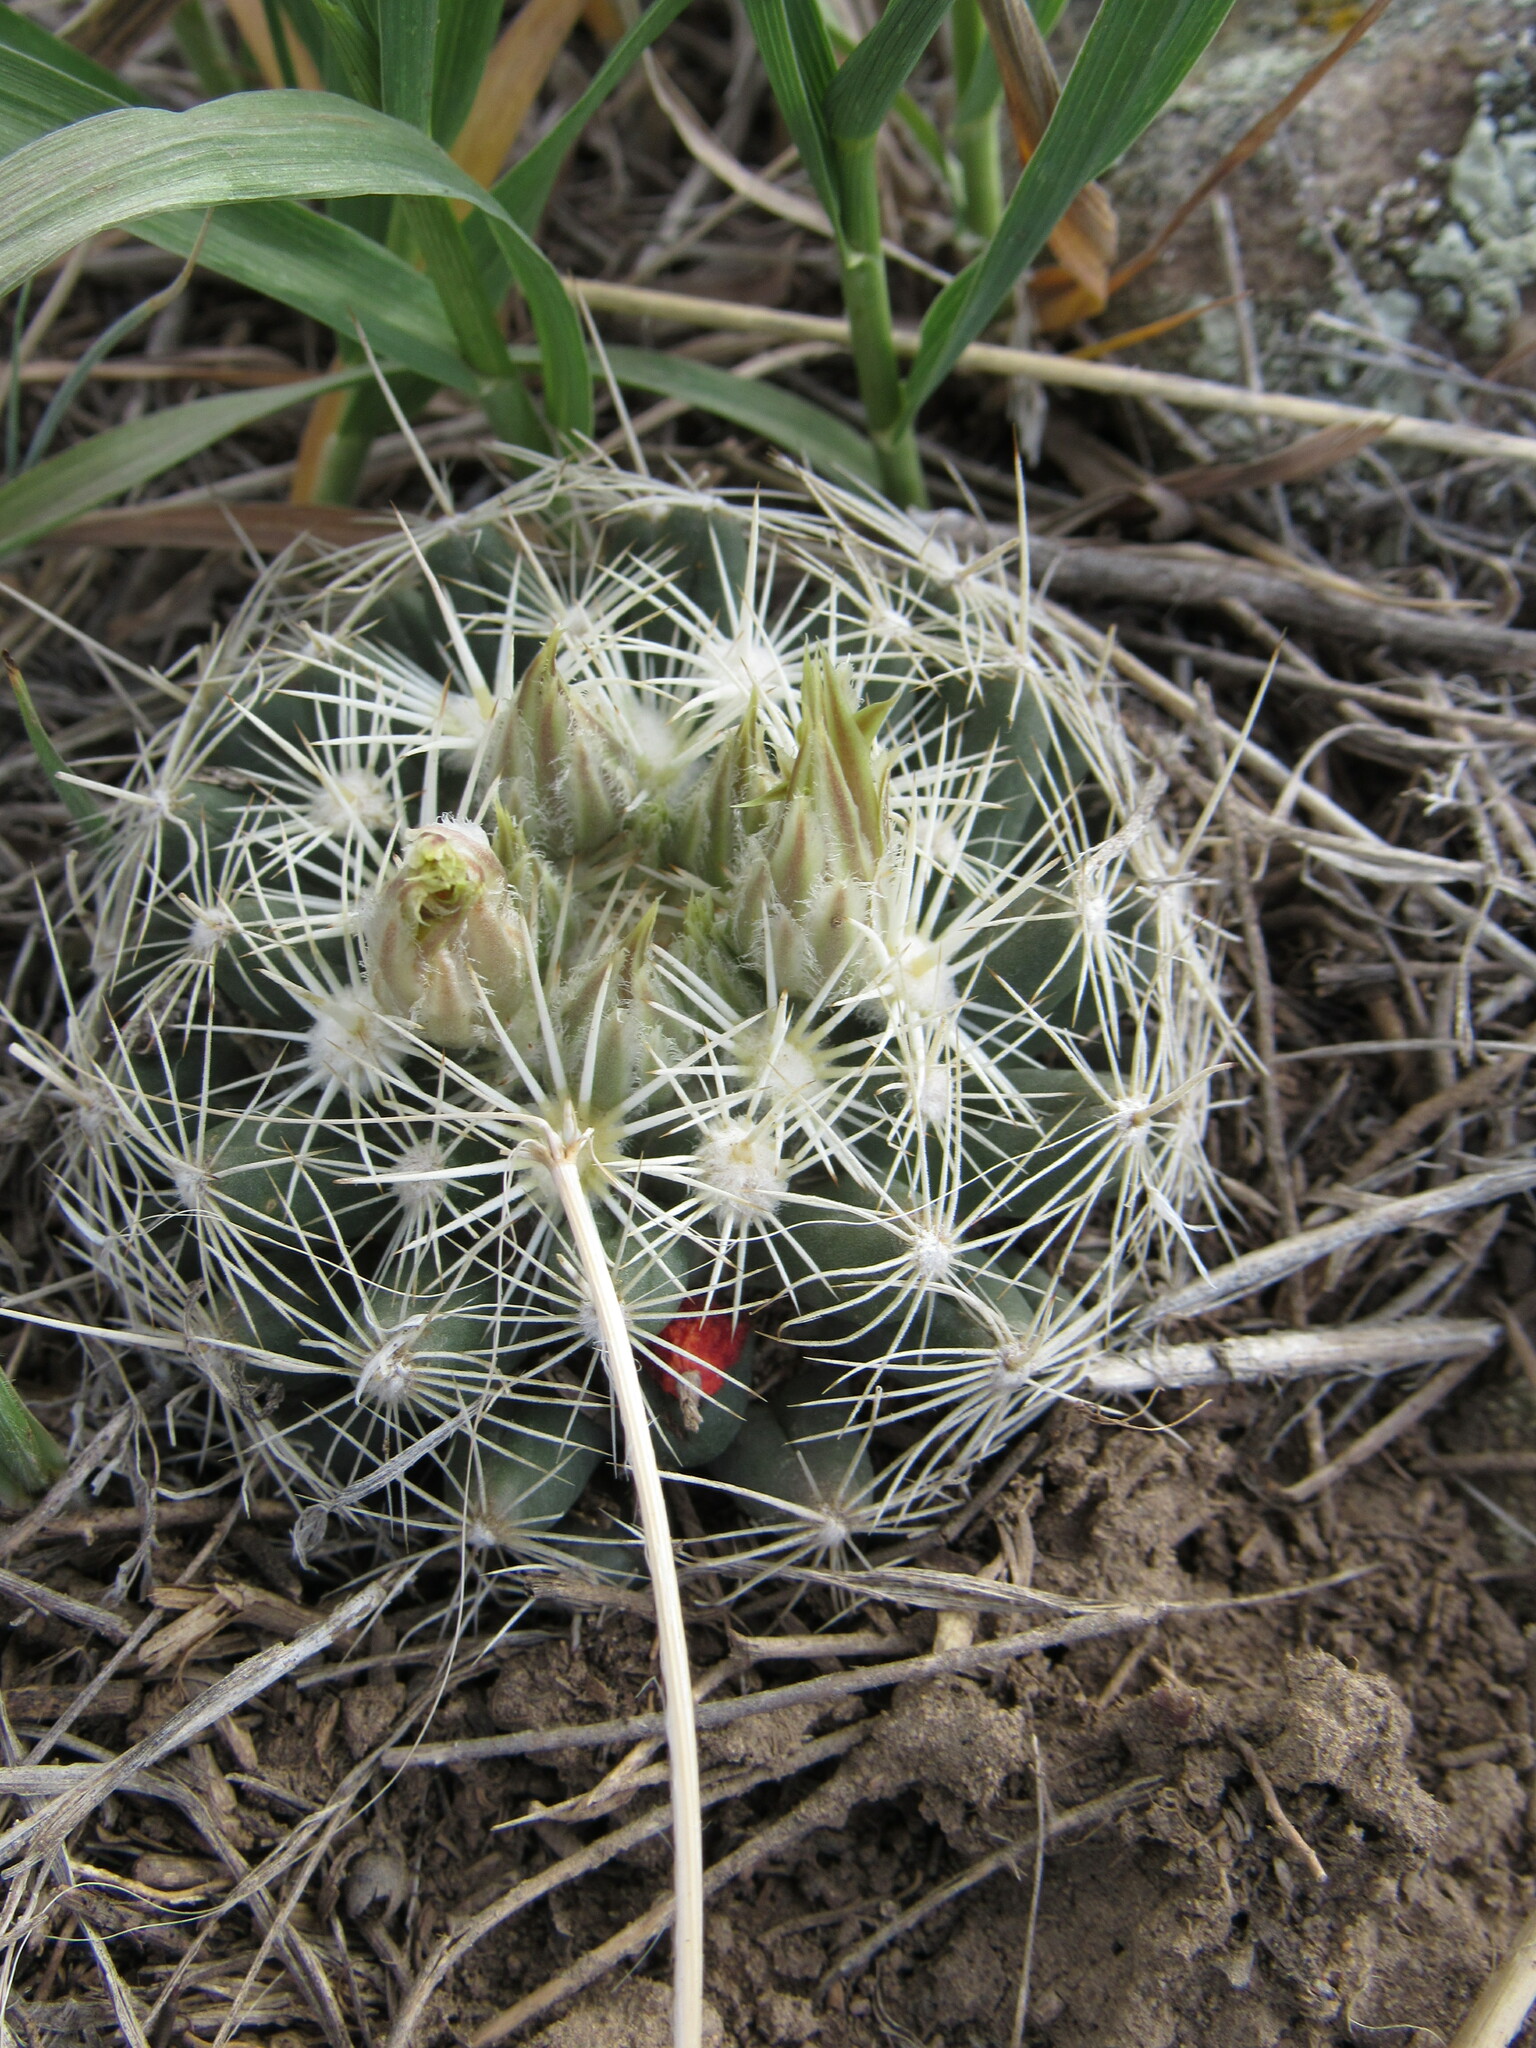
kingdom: Plantae
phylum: Tracheophyta
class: Magnoliopsida
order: Caryophyllales
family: Cactaceae
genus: Pelecyphora
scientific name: Pelecyphora missouriensis
